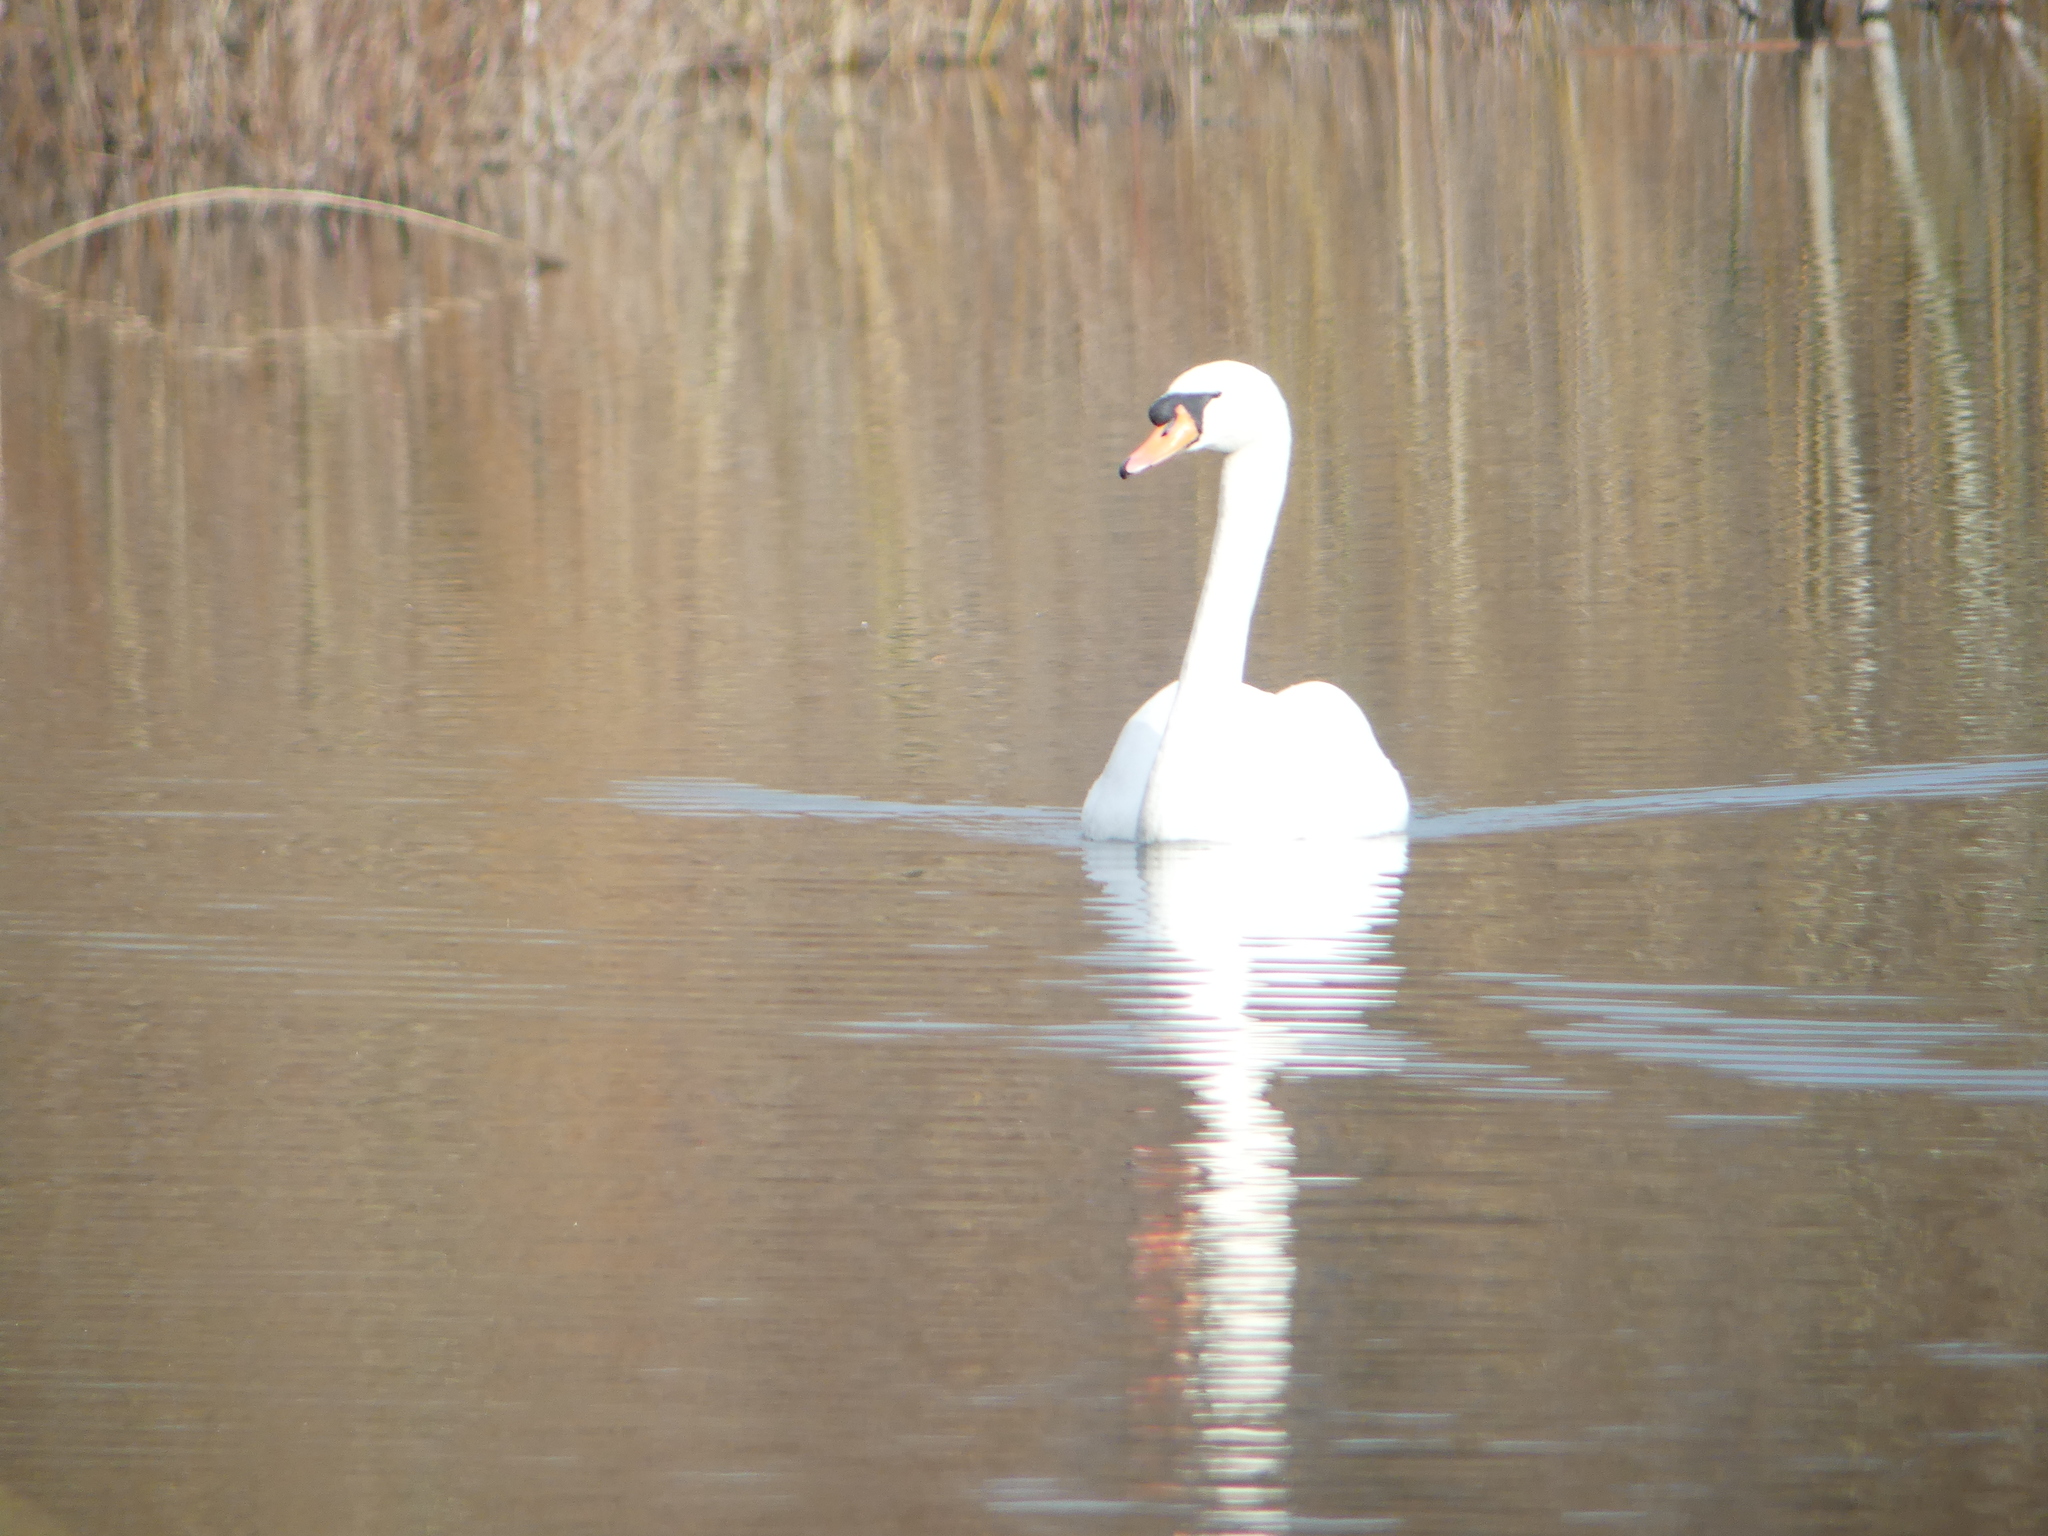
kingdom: Animalia
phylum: Chordata
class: Aves
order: Anseriformes
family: Anatidae
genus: Cygnus
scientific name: Cygnus olor
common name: Mute swan
